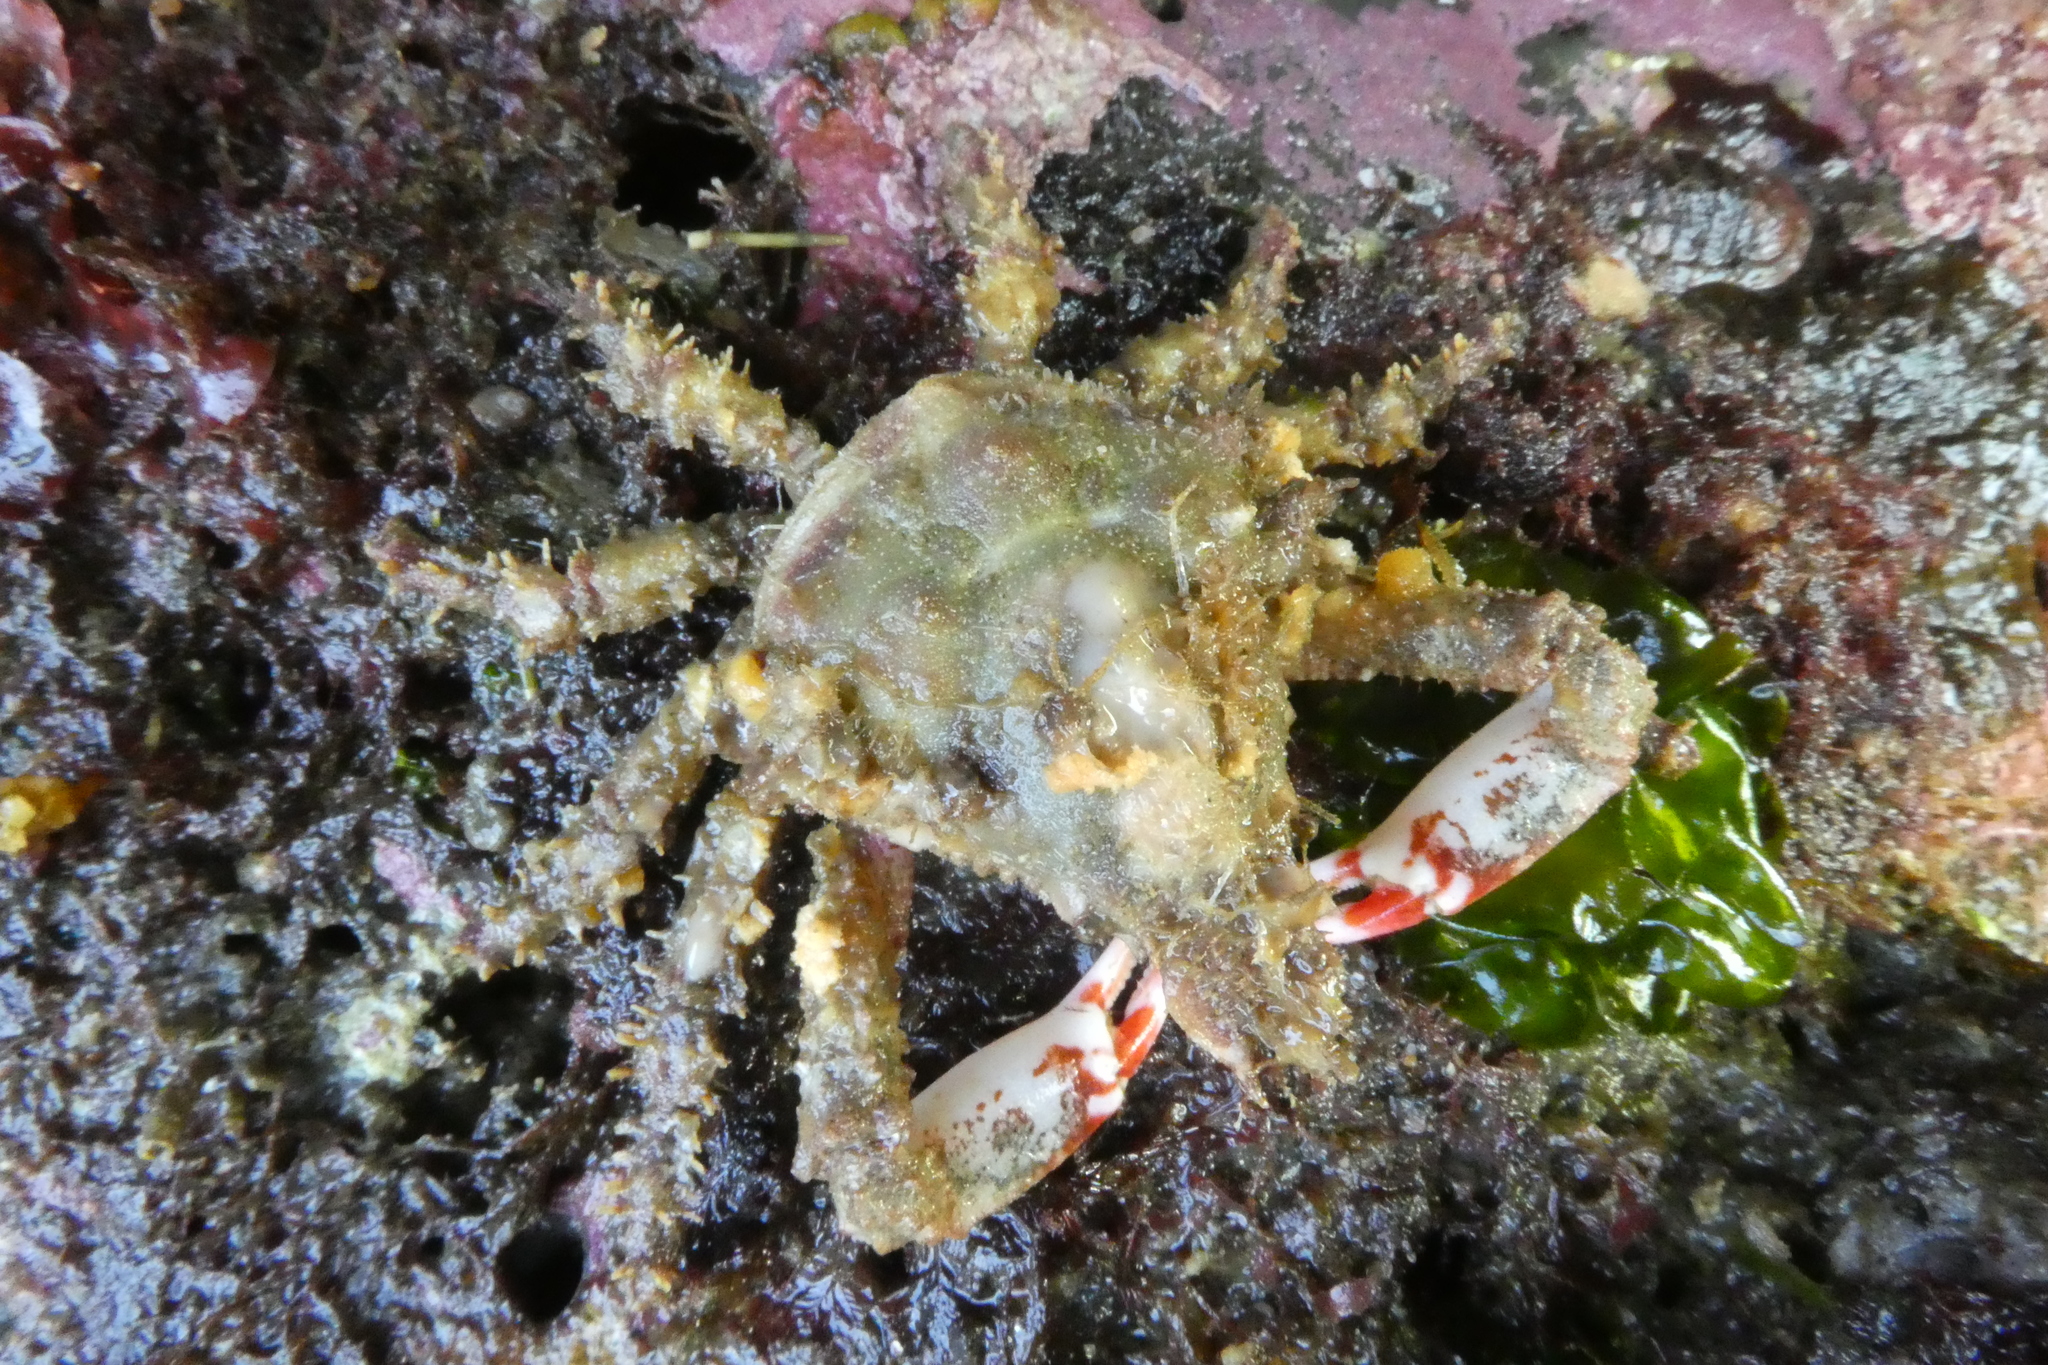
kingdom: Animalia
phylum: Arthropoda
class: Malacostraca
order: Decapoda
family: Epialtidae
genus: Scyra
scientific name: Scyra acutifrons
